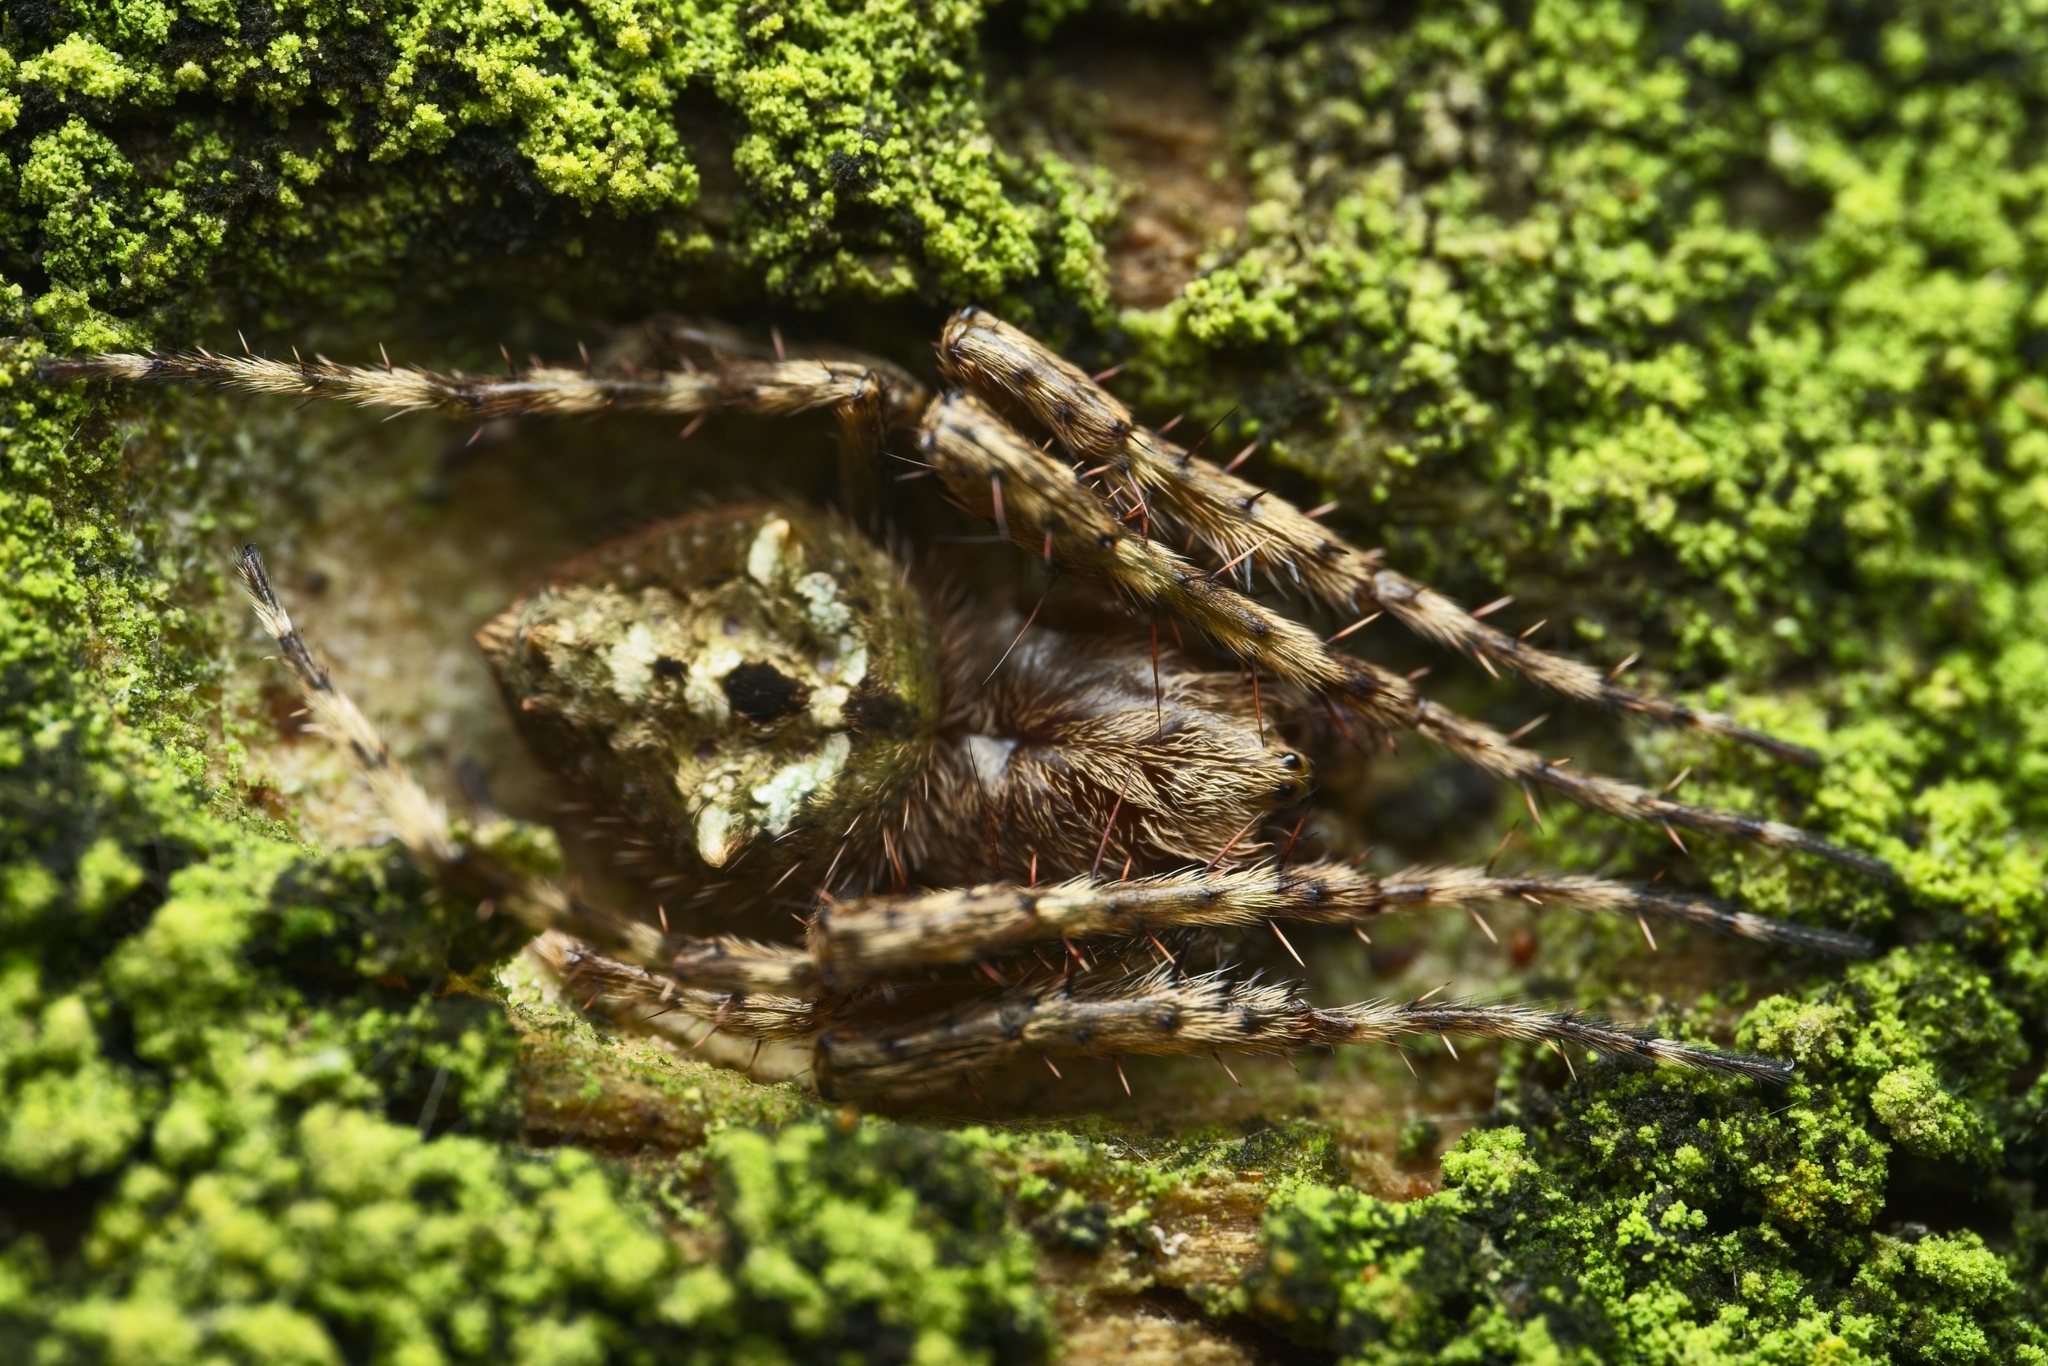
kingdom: Animalia
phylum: Arthropoda
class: Arachnida
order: Araneae
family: Araneidae
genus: Eriophora
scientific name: Eriophora pustulosa
